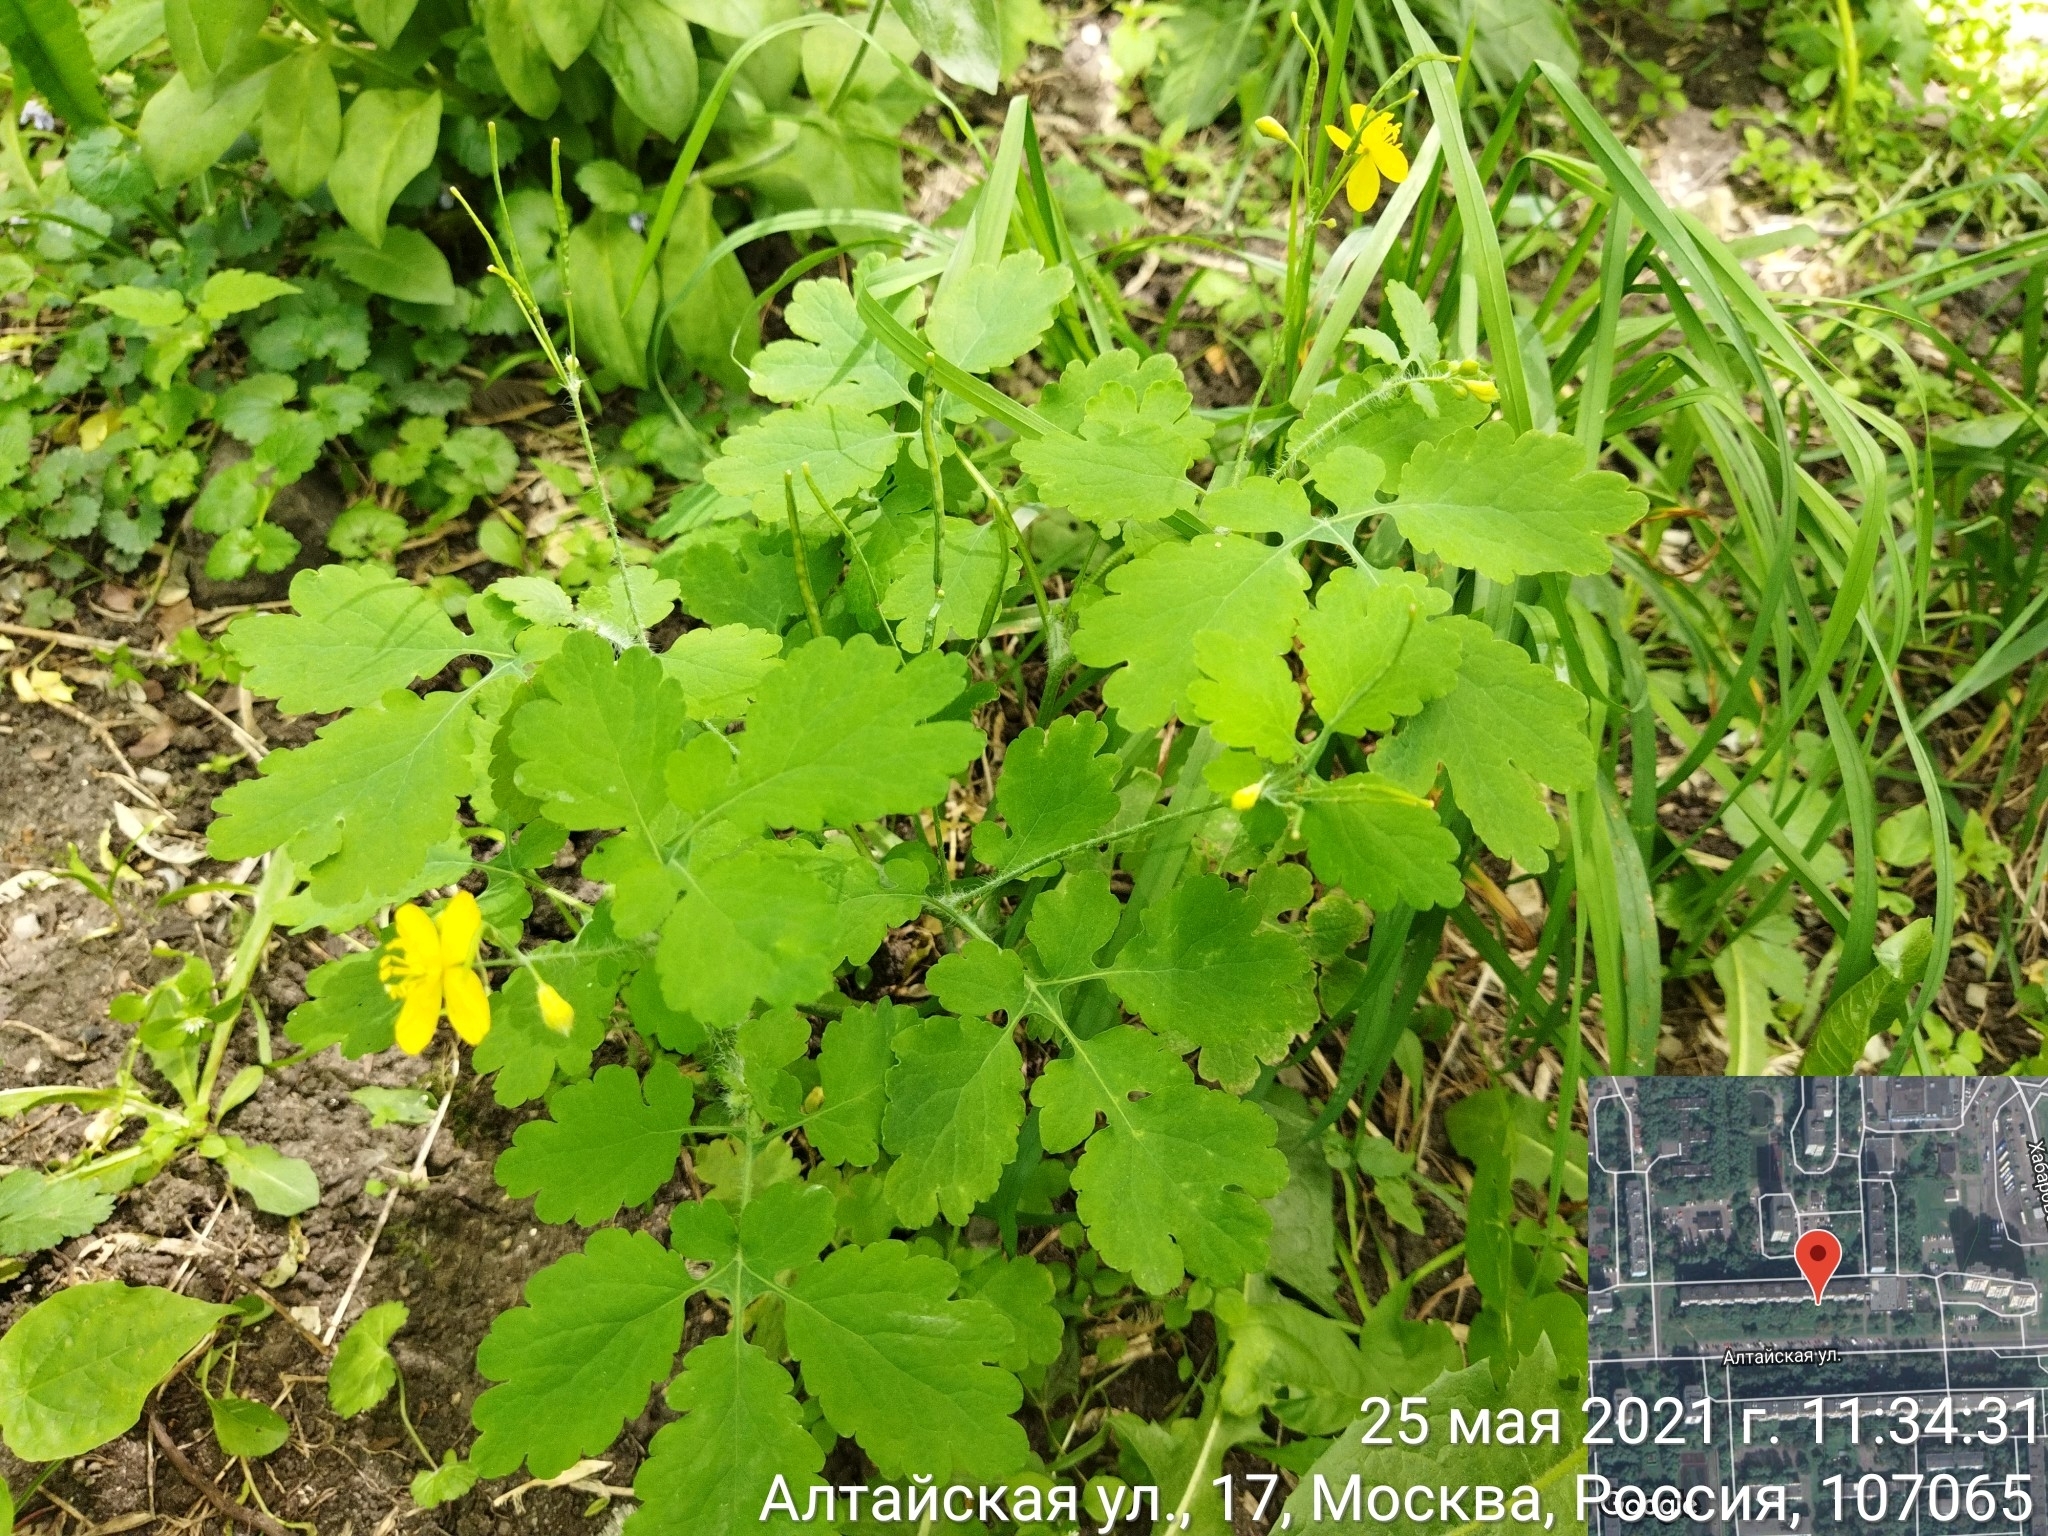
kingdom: Plantae
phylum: Tracheophyta
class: Magnoliopsida
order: Ranunculales
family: Papaveraceae
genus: Chelidonium
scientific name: Chelidonium majus
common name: Greater celandine
